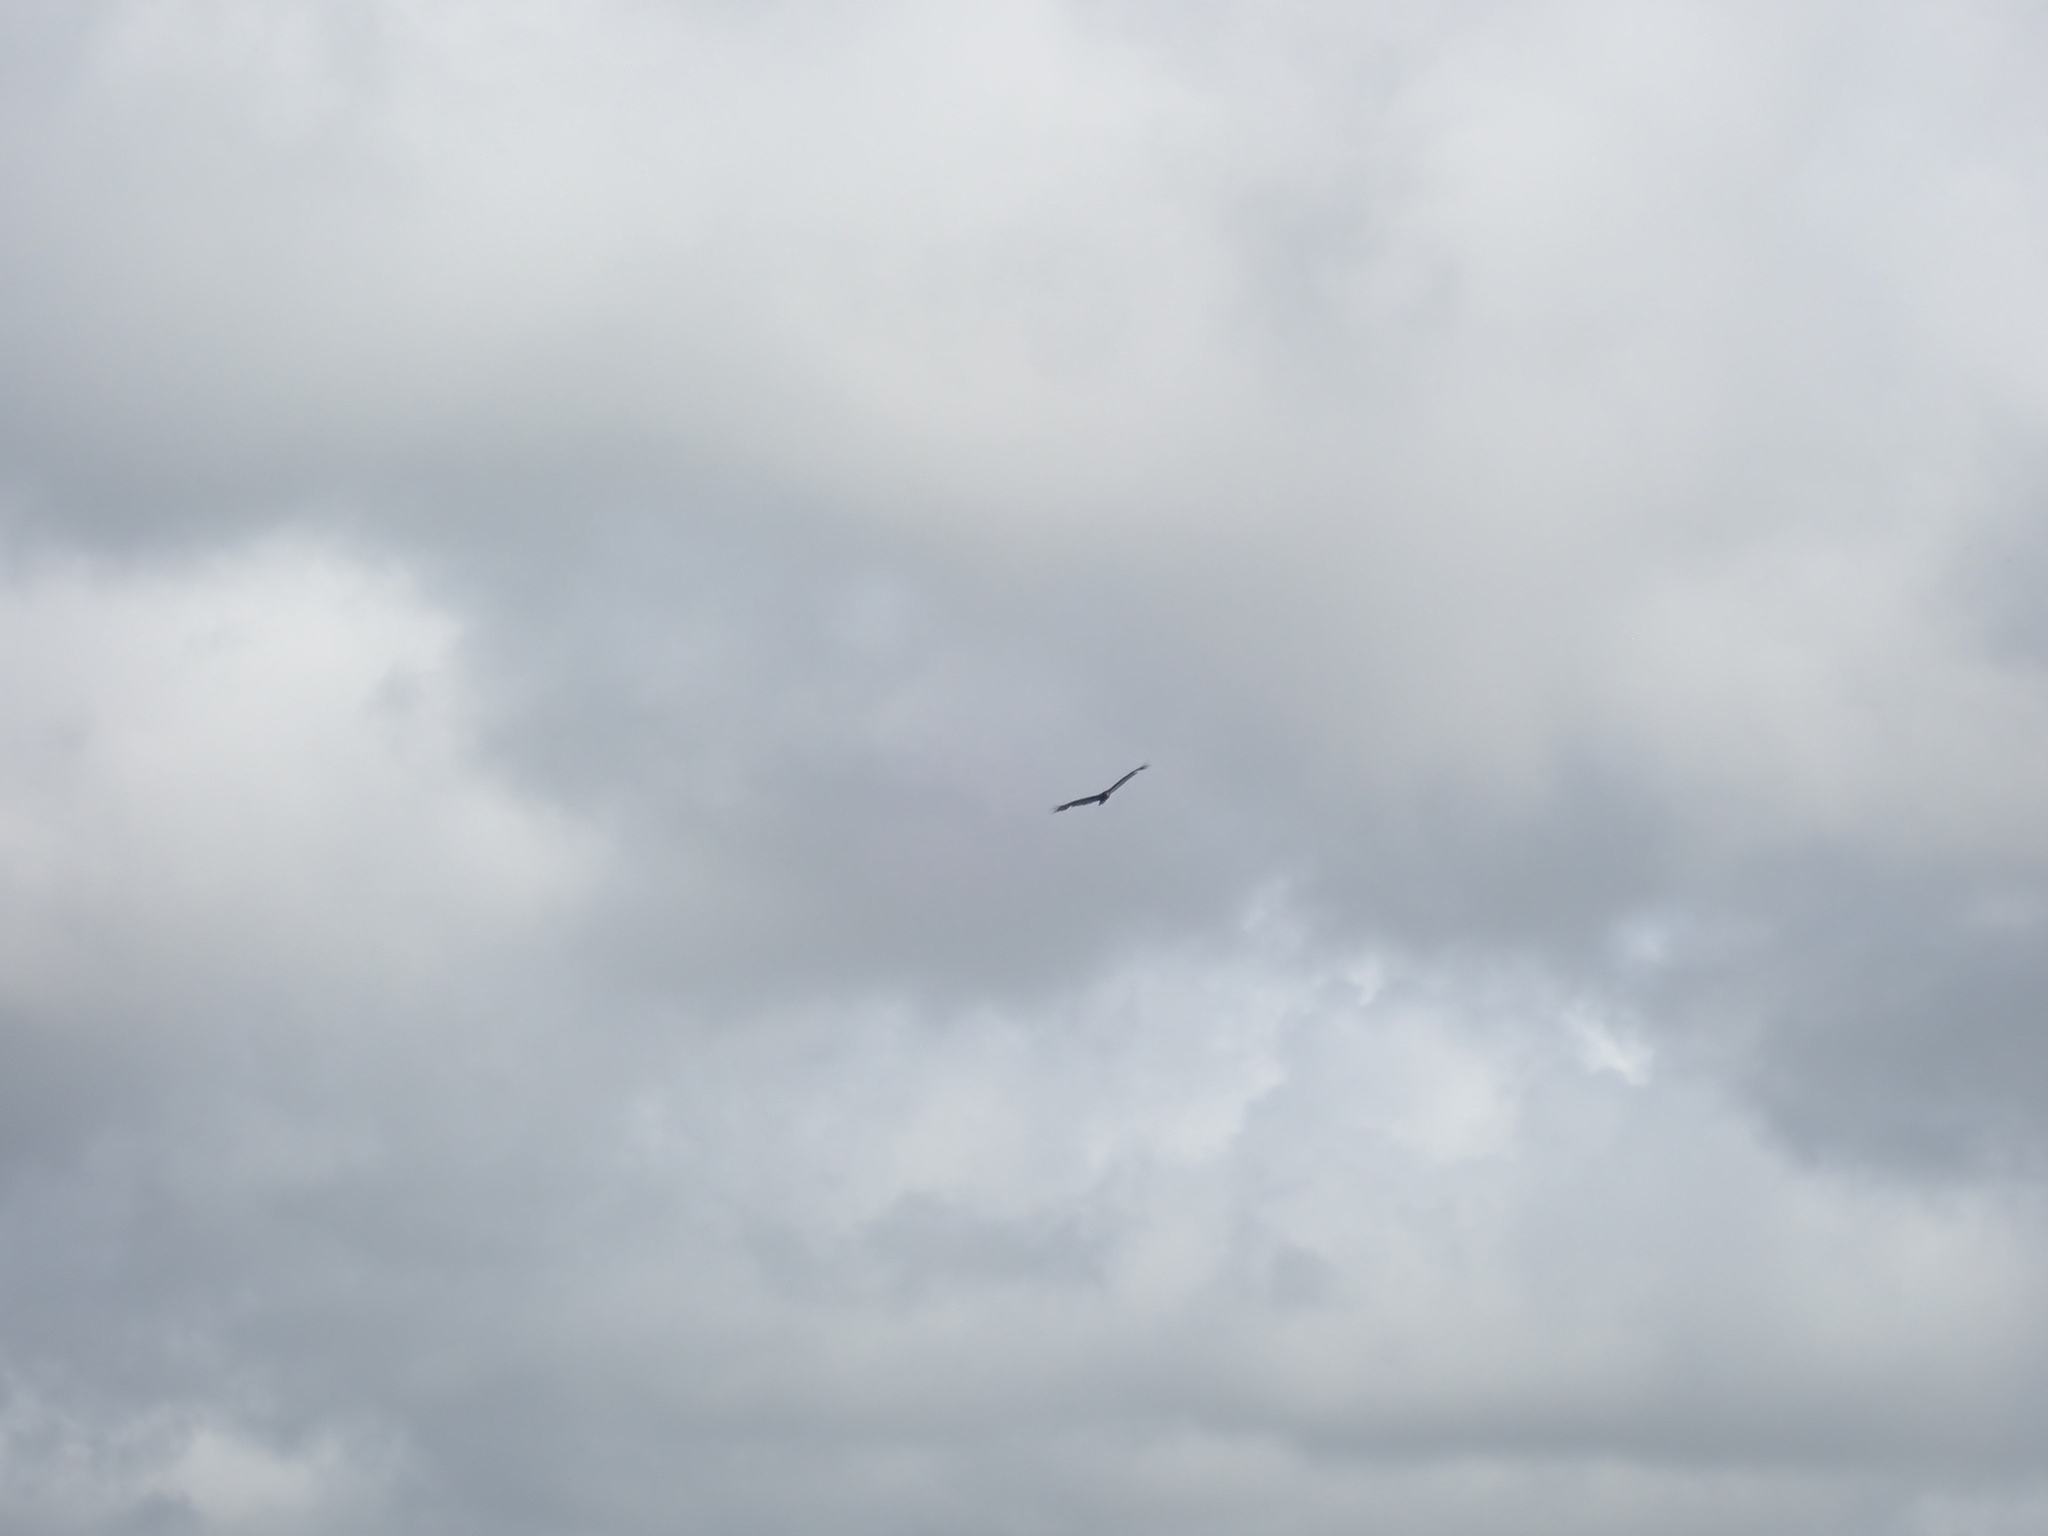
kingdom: Animalia
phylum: Chordata
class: Aves
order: Accipitriformes
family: Cathartidae
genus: Cathartes
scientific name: Cathartes aura
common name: Turkey vulture
